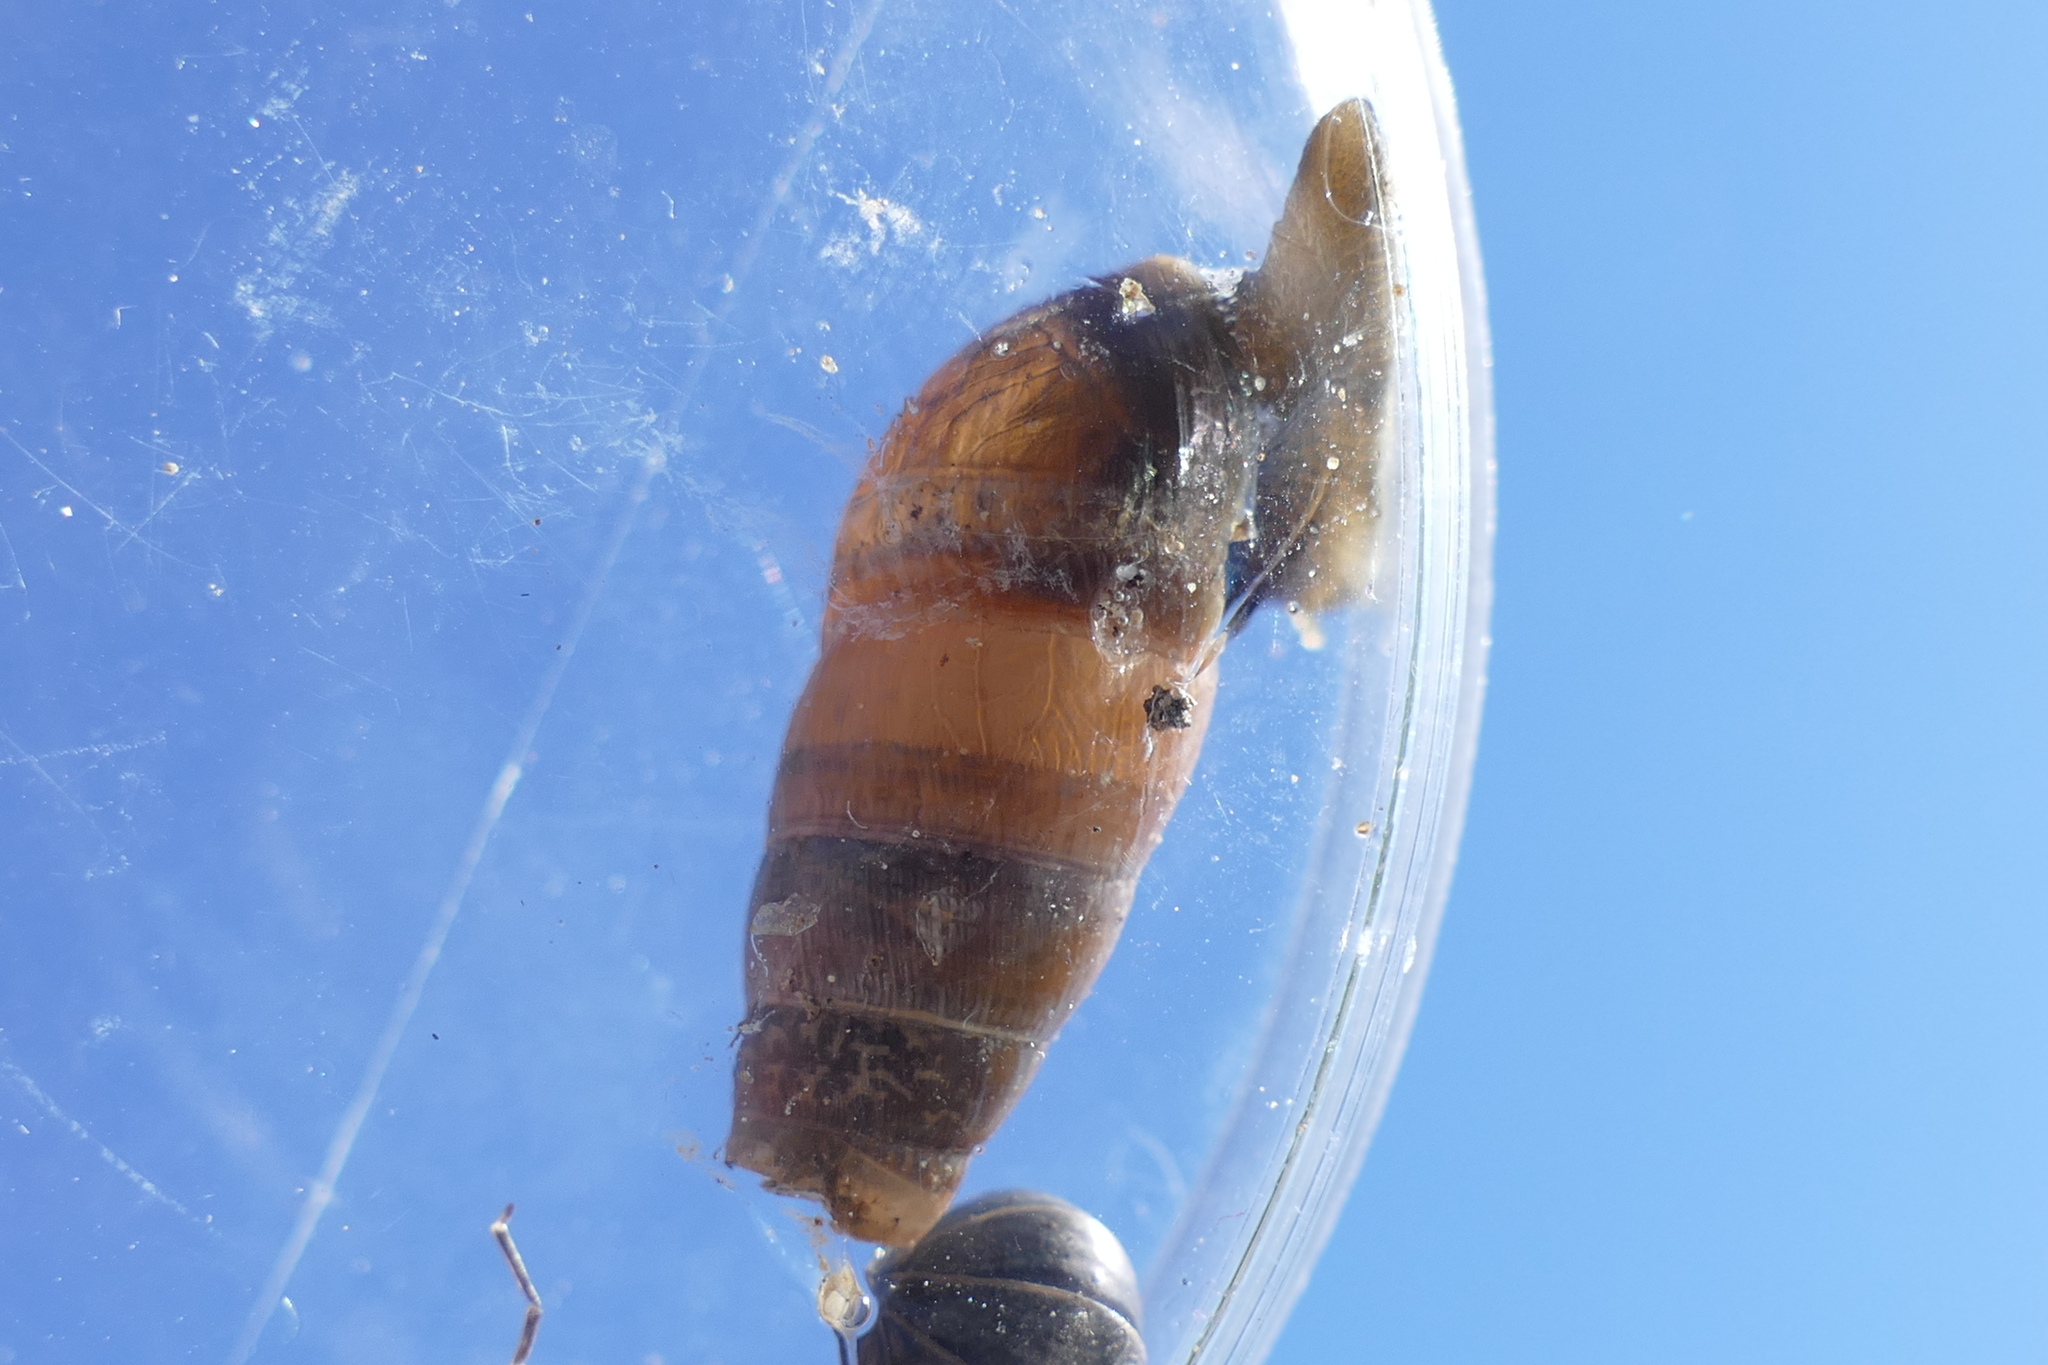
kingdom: Animalia
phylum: Mollusca
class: Gastropoda
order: Stylommatophora
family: Achatinidae
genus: Rumina
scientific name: Rumina decollata
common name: Decollate snail
